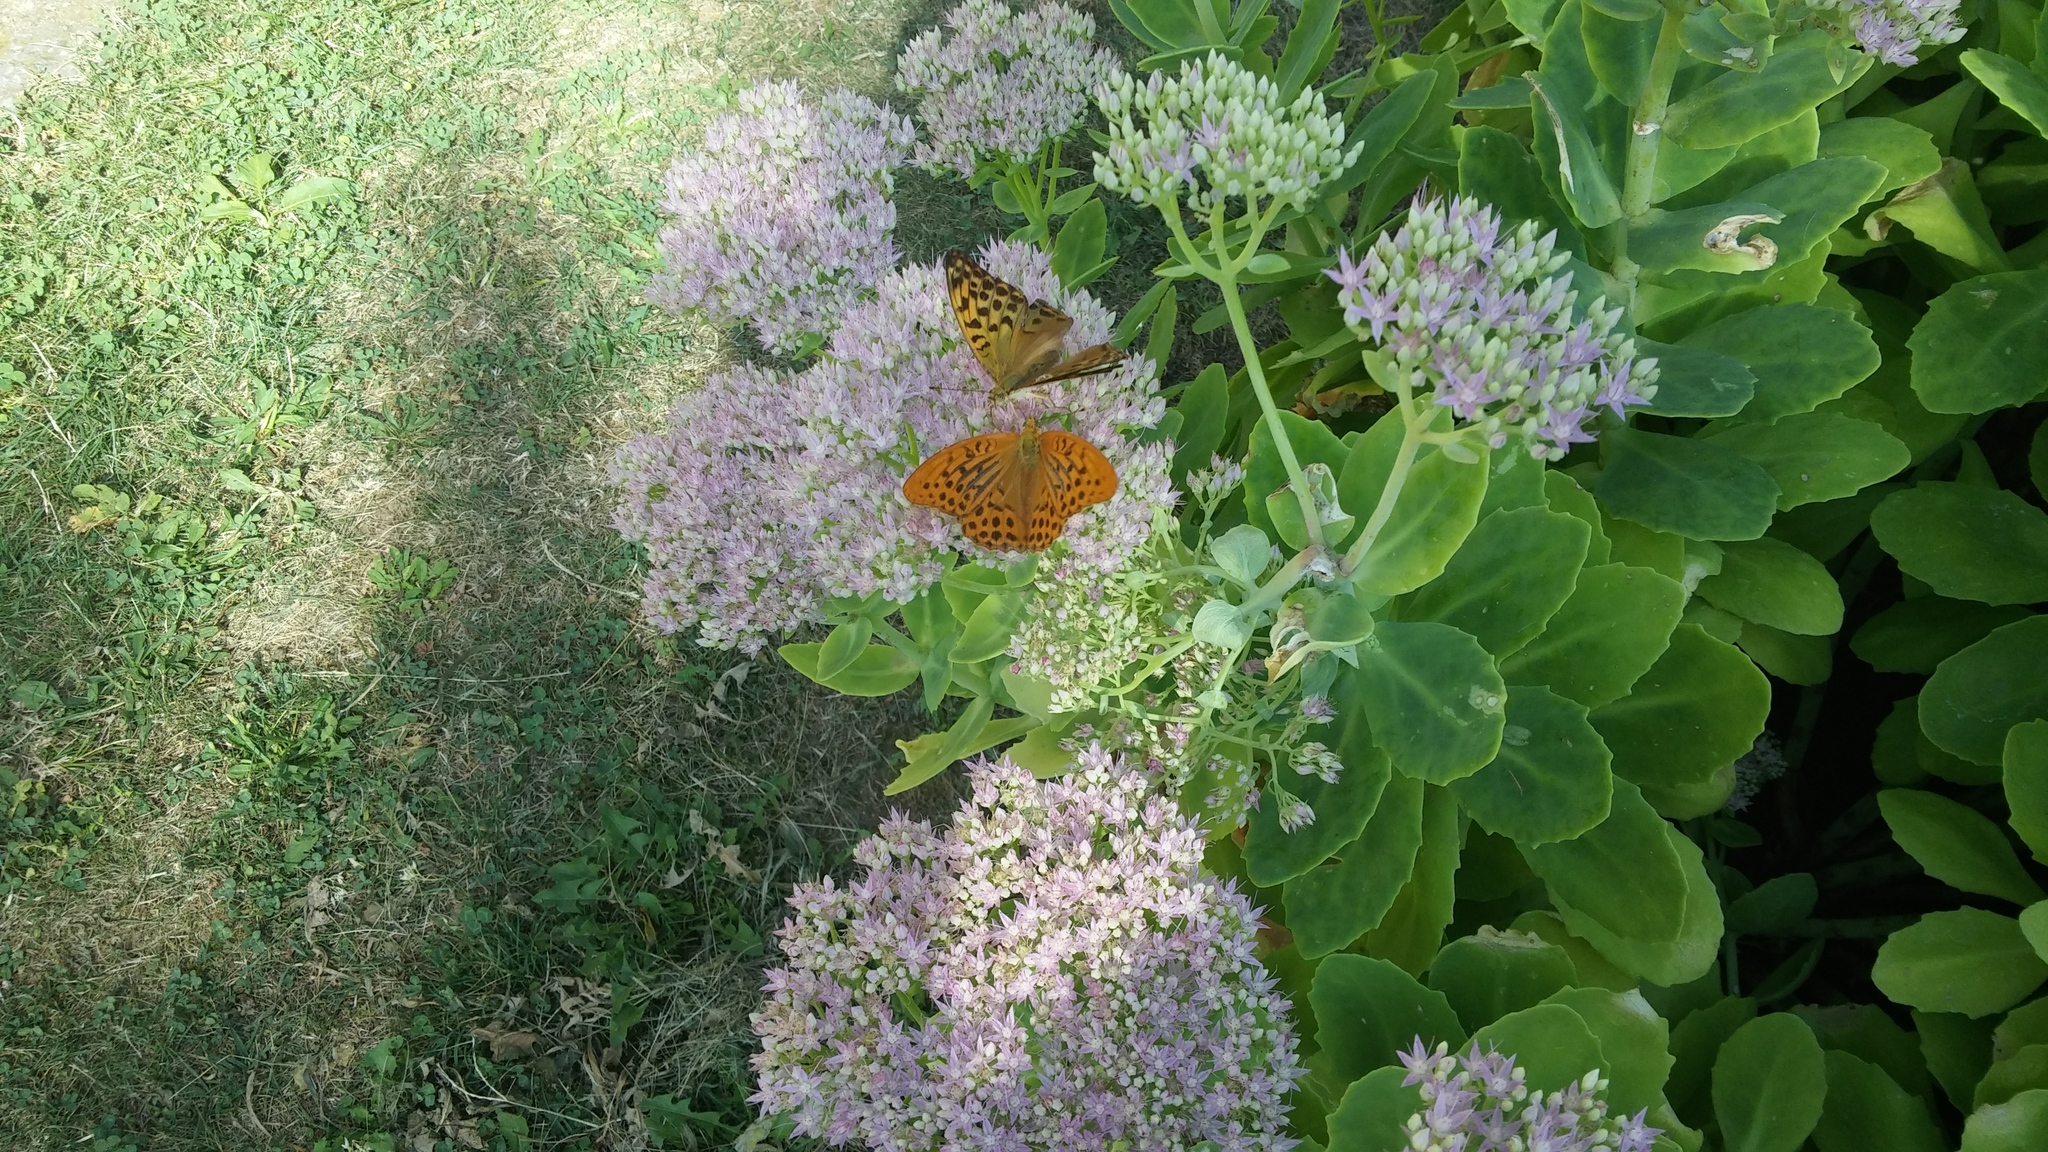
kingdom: Animalia
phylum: Arthropoda
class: Insecta
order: Lepidoptera
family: Nymphalidae
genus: Argynnis
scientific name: Argynnis paphia
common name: Silver-washed fritillary
